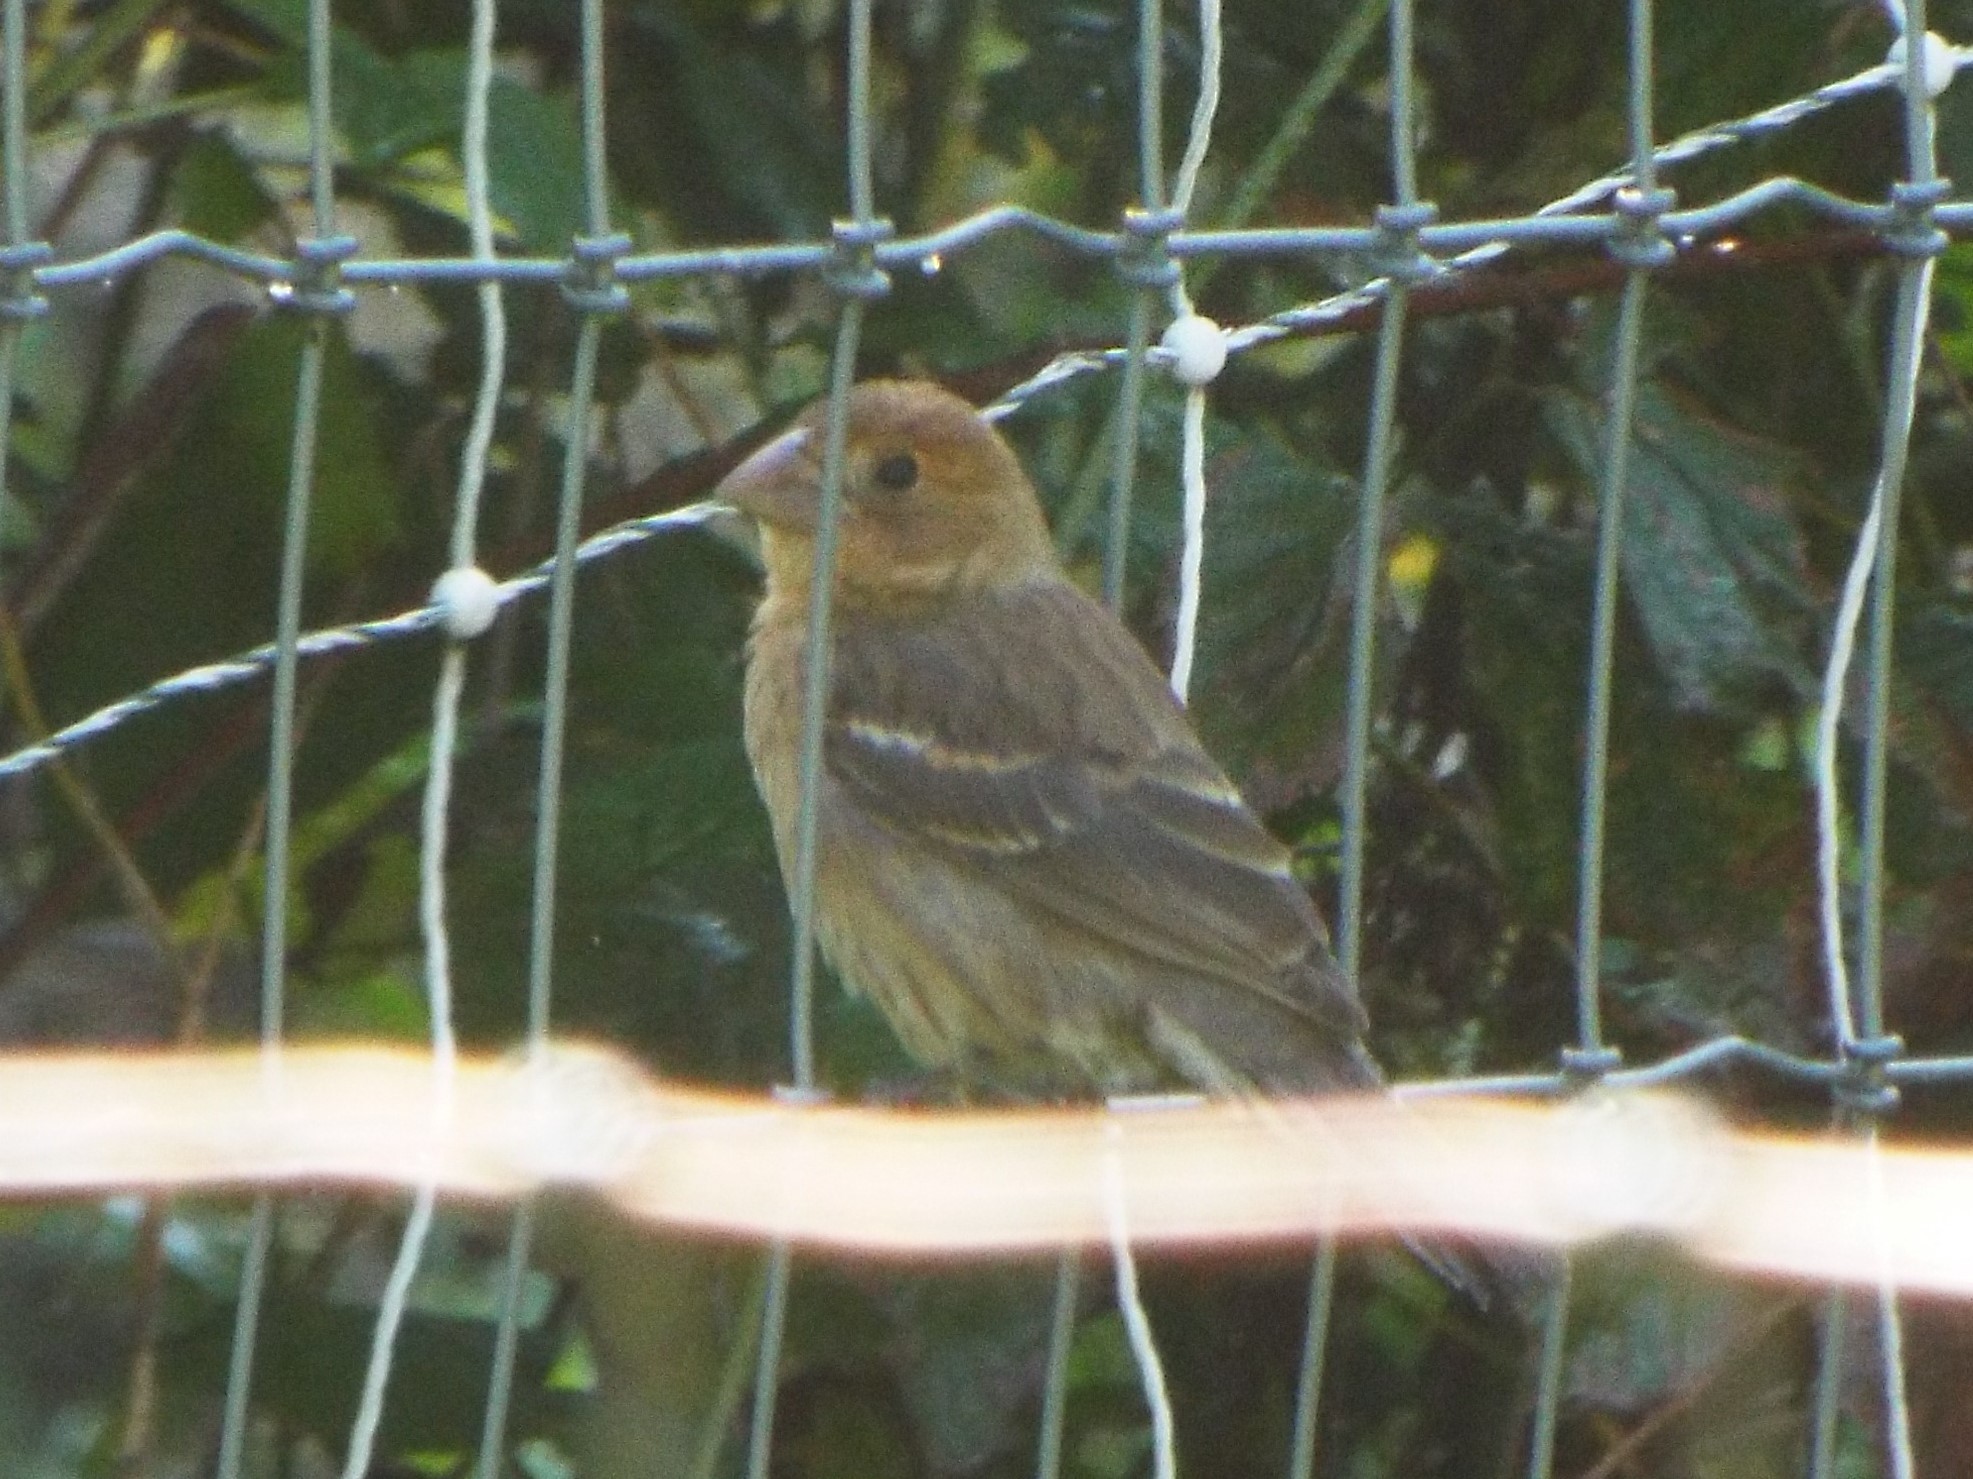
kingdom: Animalia
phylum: Chordata
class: Aves
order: Passeriformes
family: Cardinalidae
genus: Passerina
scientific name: Passerina caerulea
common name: Blue grosbeak
